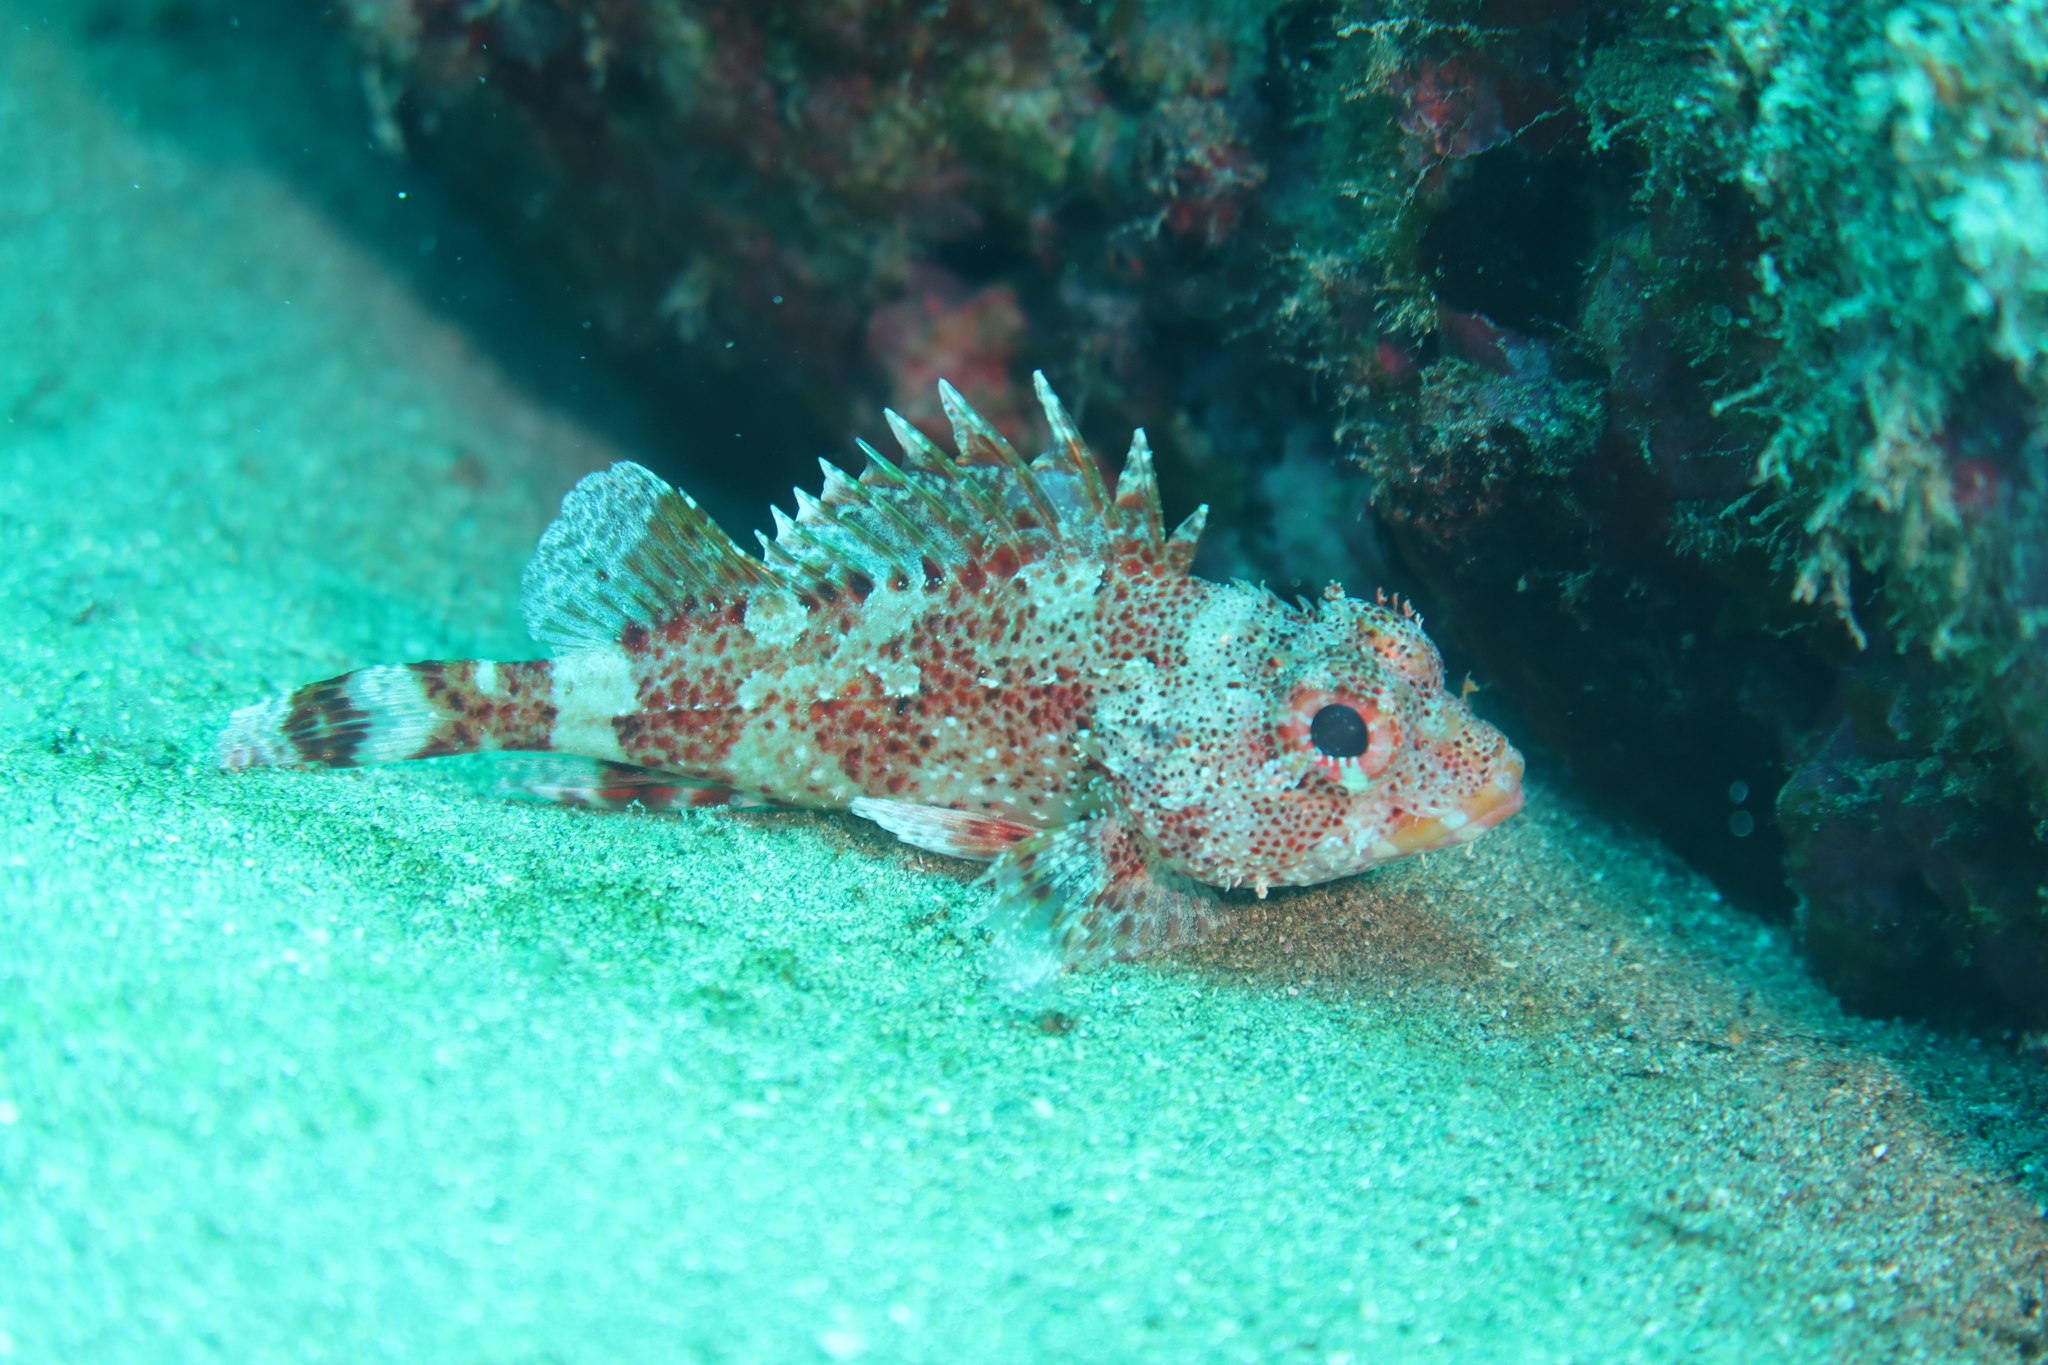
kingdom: Animalia
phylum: Chordata
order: Scorpaeniformes
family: Scorpaenidae
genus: Scorpaena
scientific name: Scorpaena maderensis
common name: Madeira rockfish
